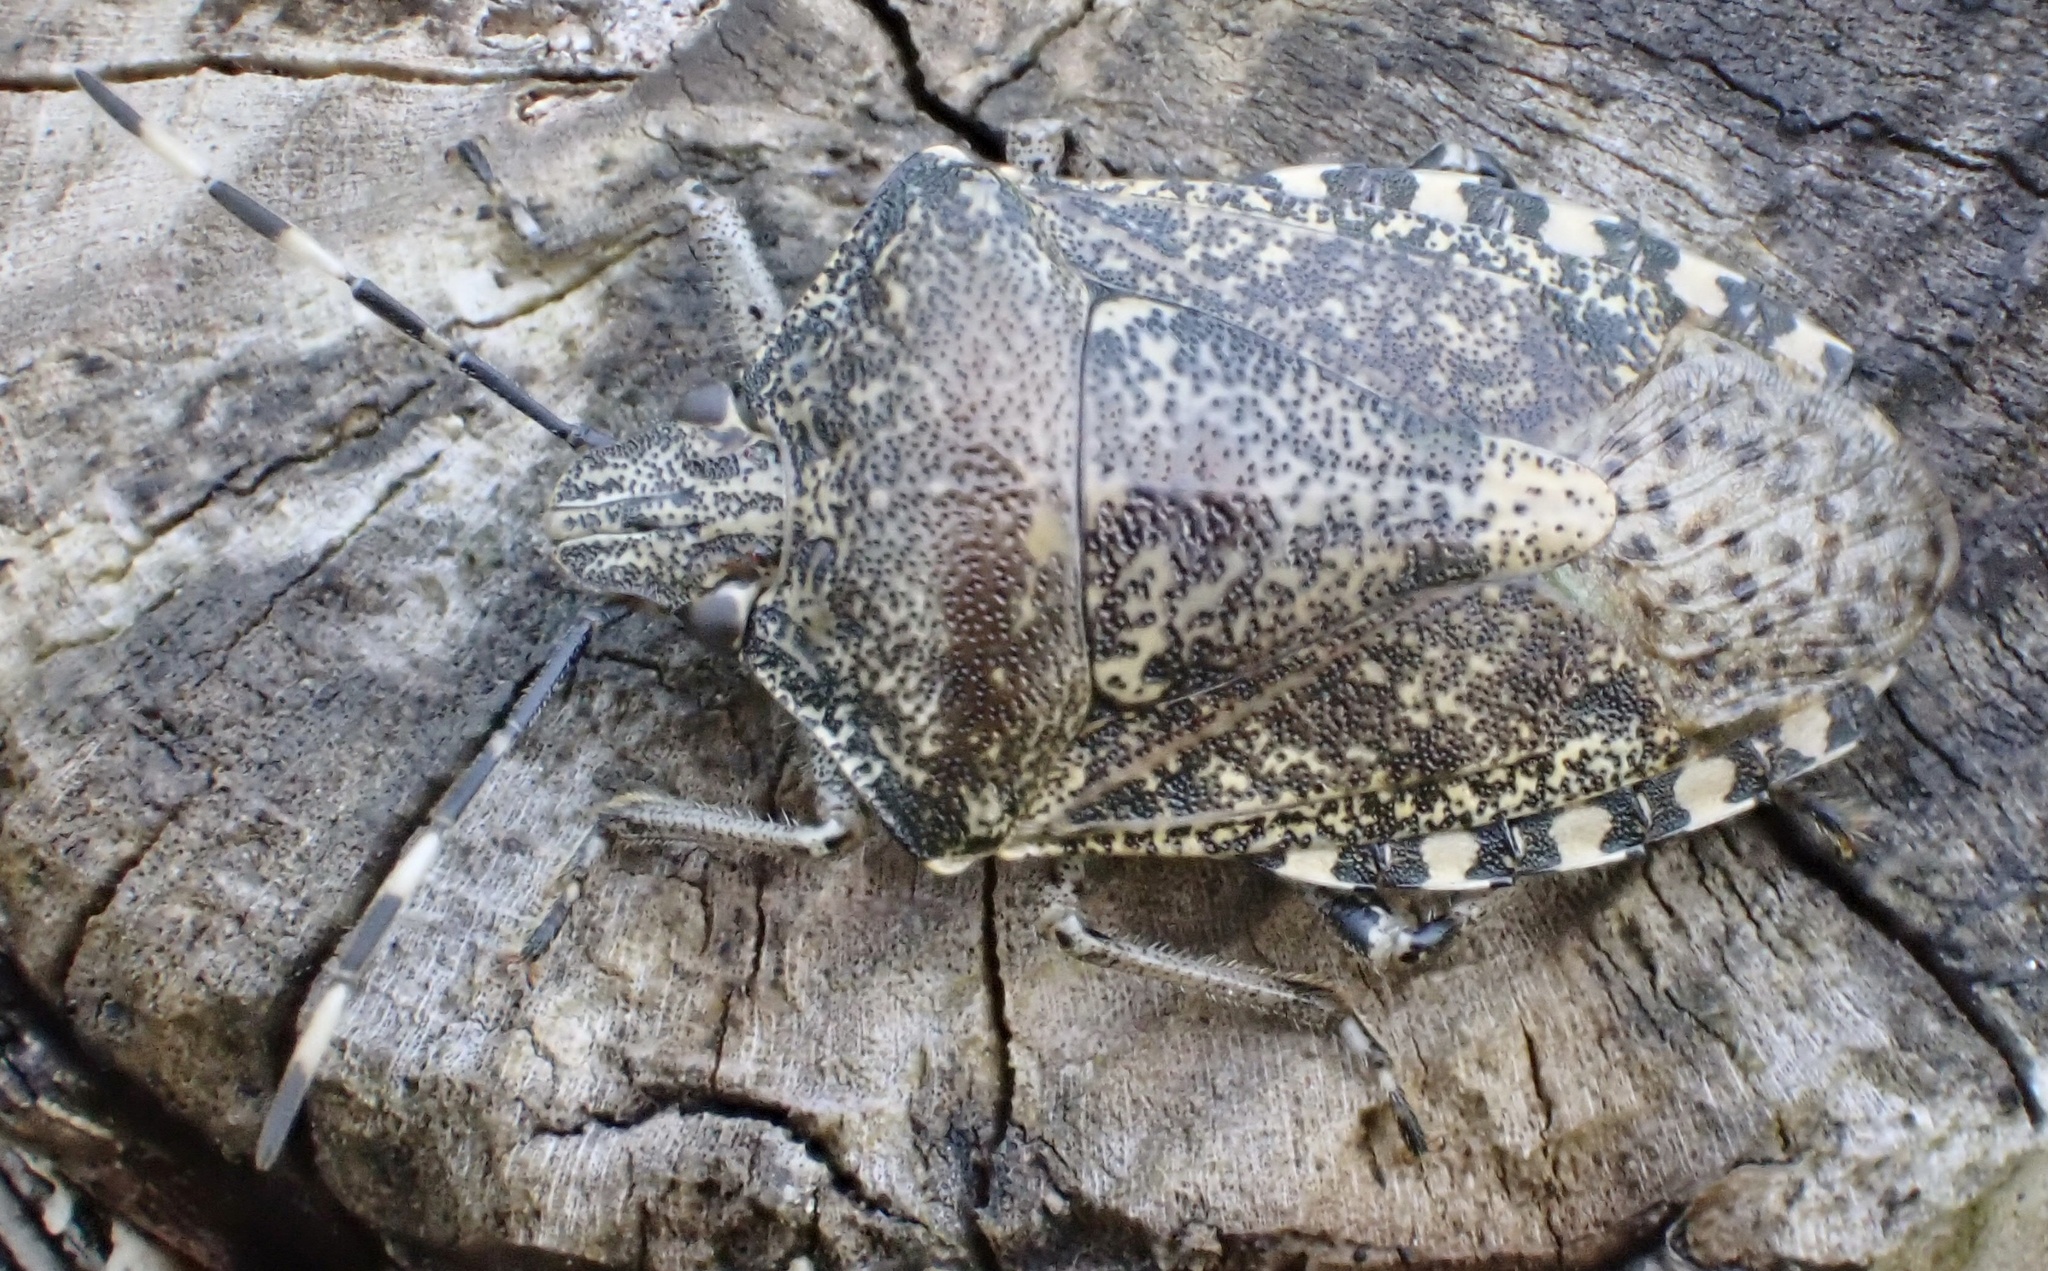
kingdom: Animalia
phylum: Arthropoda
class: Insecta
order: Hemiptera
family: Pentatomidae
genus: Rhaphigaster
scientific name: Rhaphigaster nebulosa
